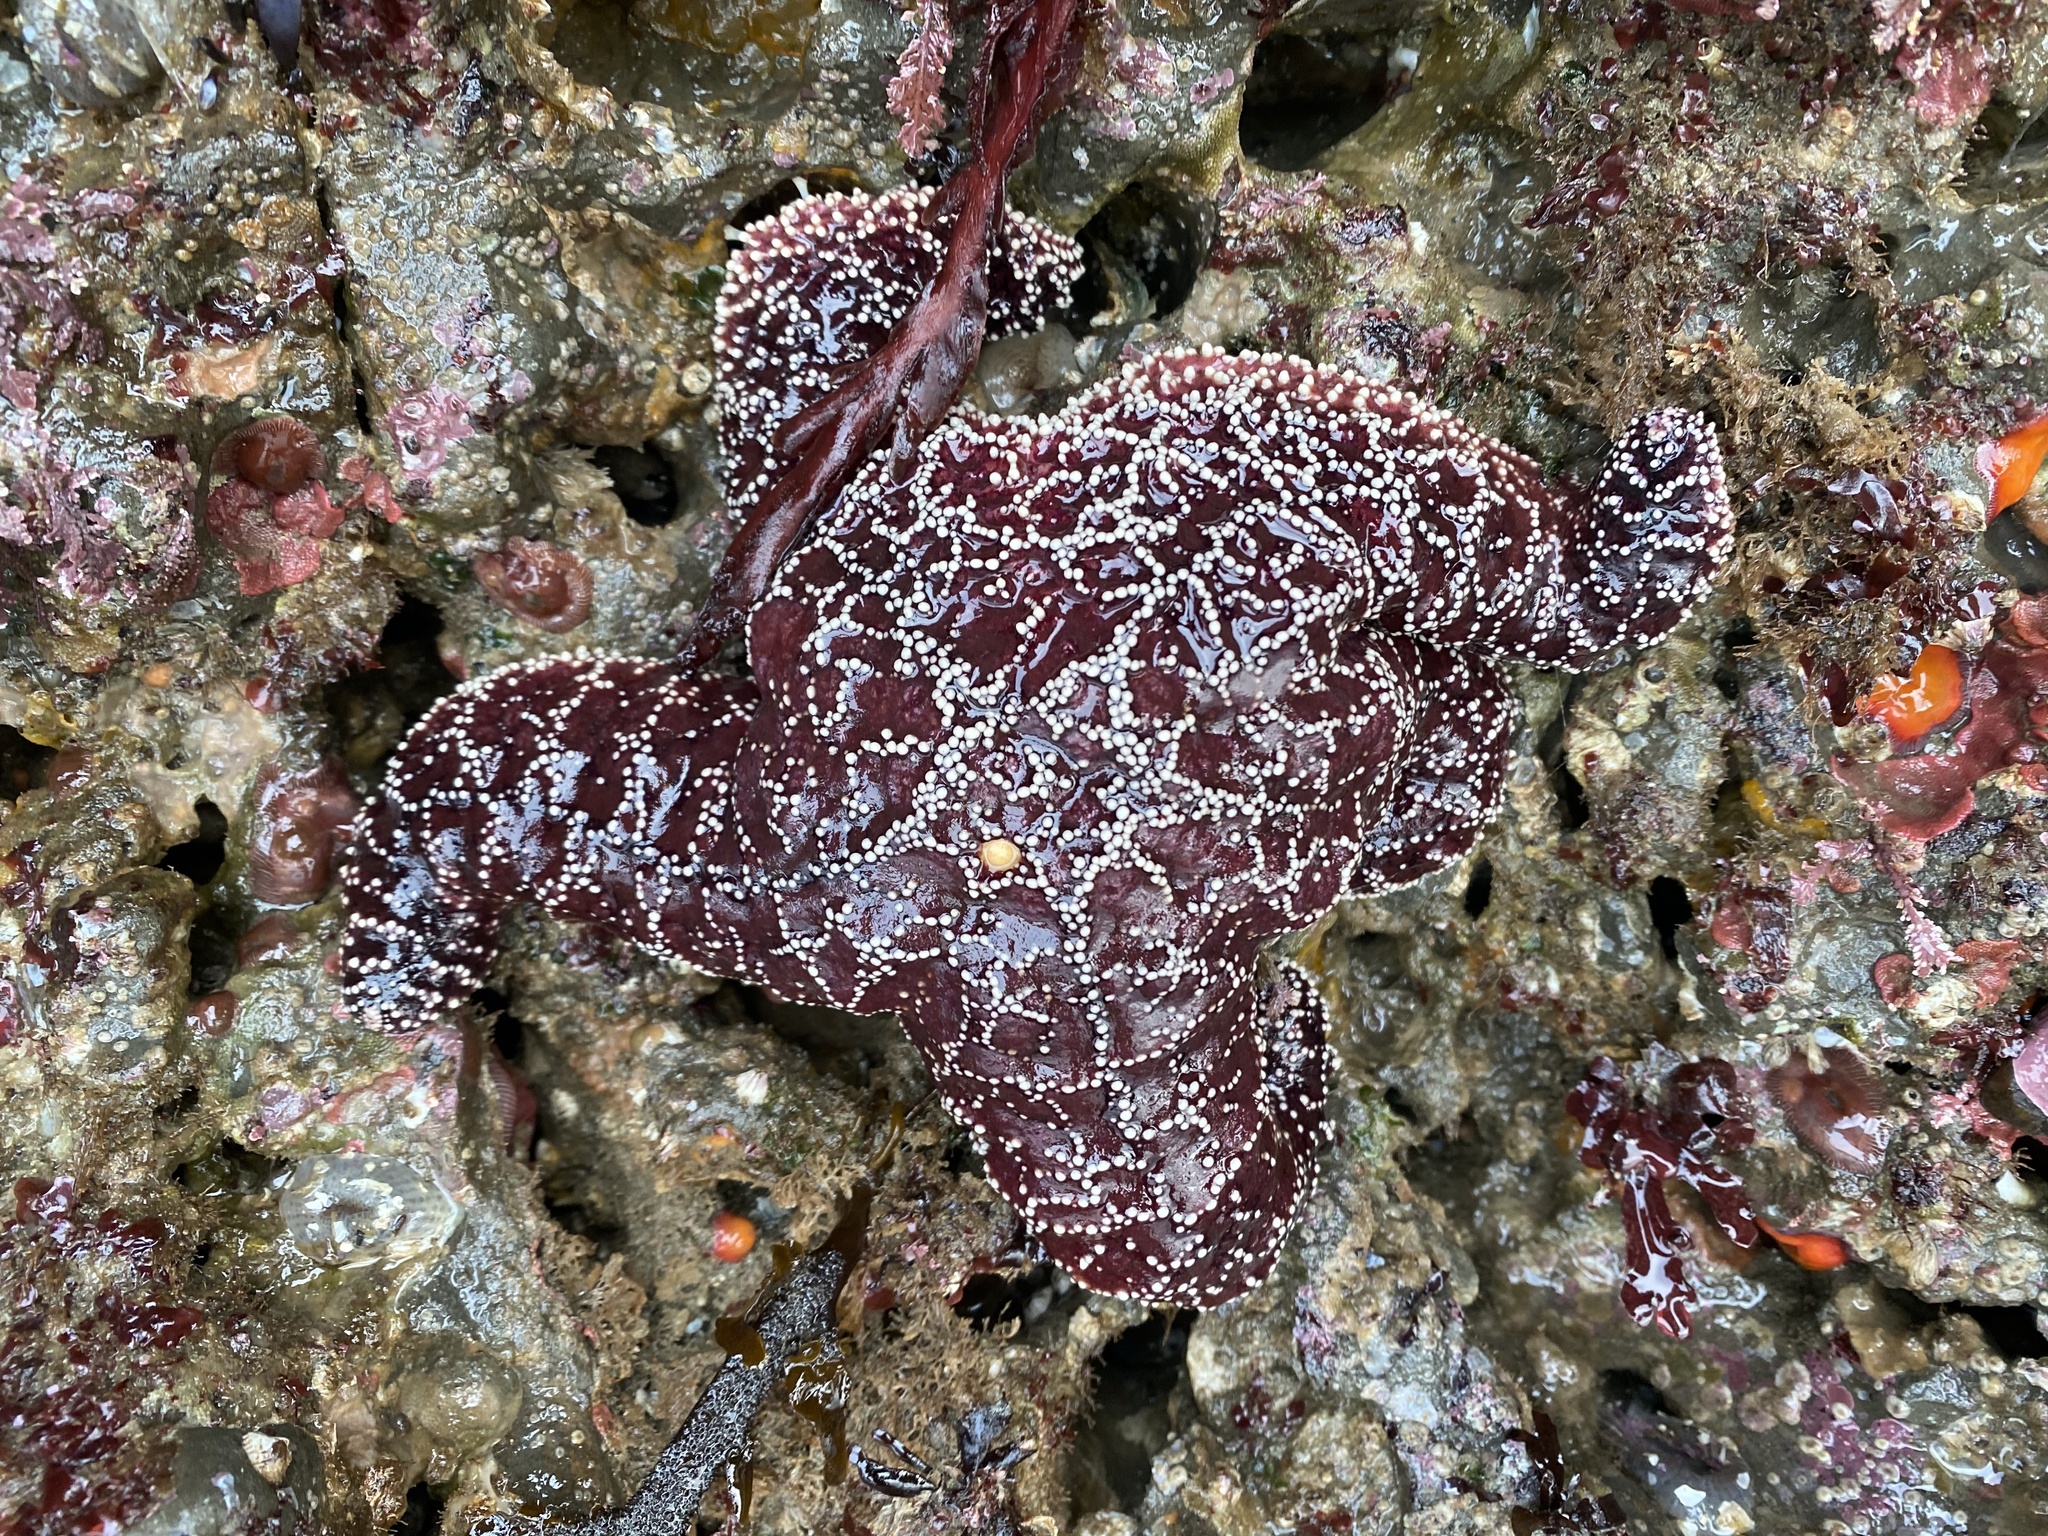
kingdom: Animalia
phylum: Echinodermata
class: Asteroidea
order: Forcipulatida
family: Asteriidae
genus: Pisaster
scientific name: Pisaster ochraceus
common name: Ochre stars
